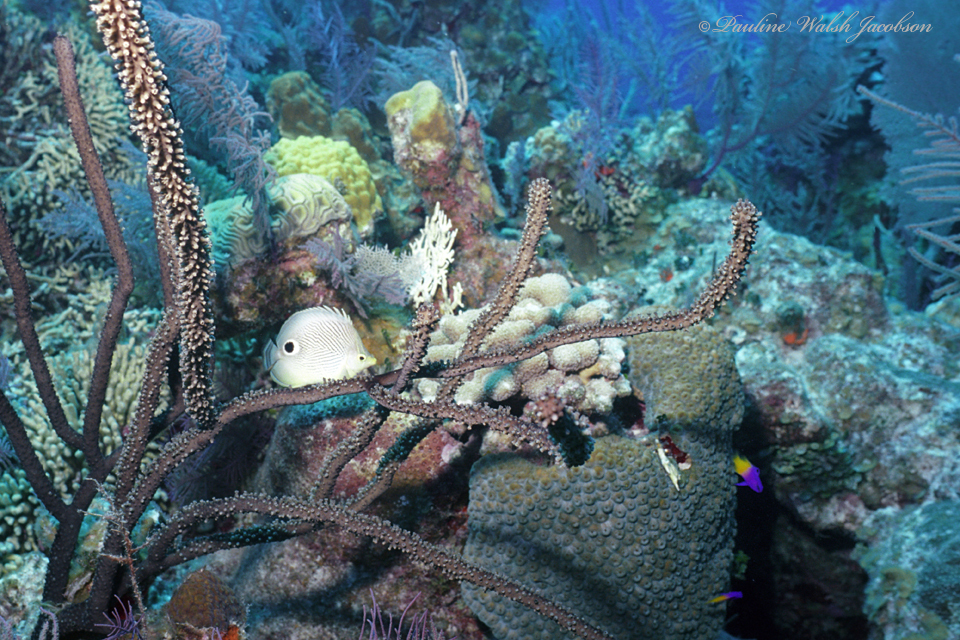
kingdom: Animalia
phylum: Chordata
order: Perciformes
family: Chaetodontidae
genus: Chaetodon
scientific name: Chaetodon capistratus
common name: Kete
